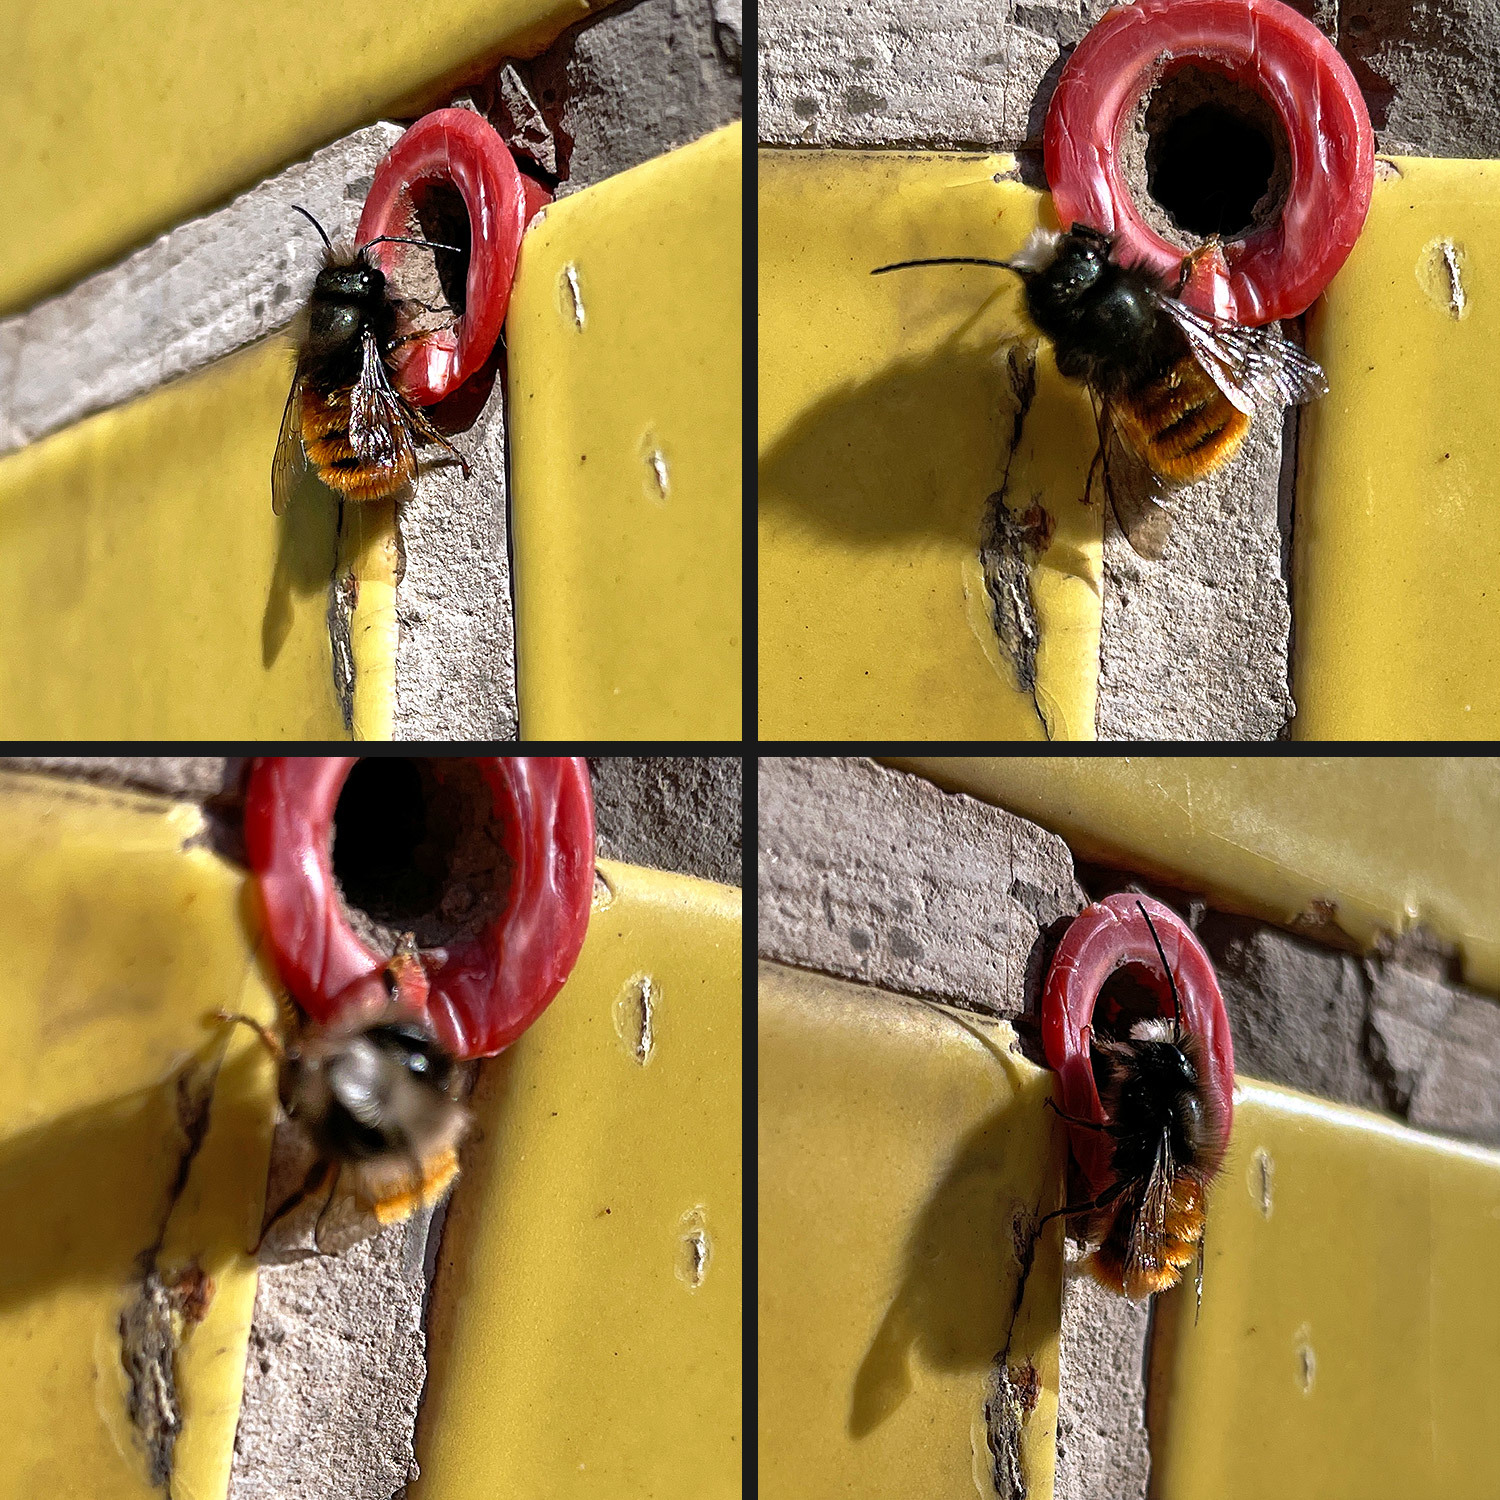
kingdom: Animalia
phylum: Arthropoda
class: Insecta
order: Hymenoptera
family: Megachilidae
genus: Osmia
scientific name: Osmia cornuta
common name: Mason bee
